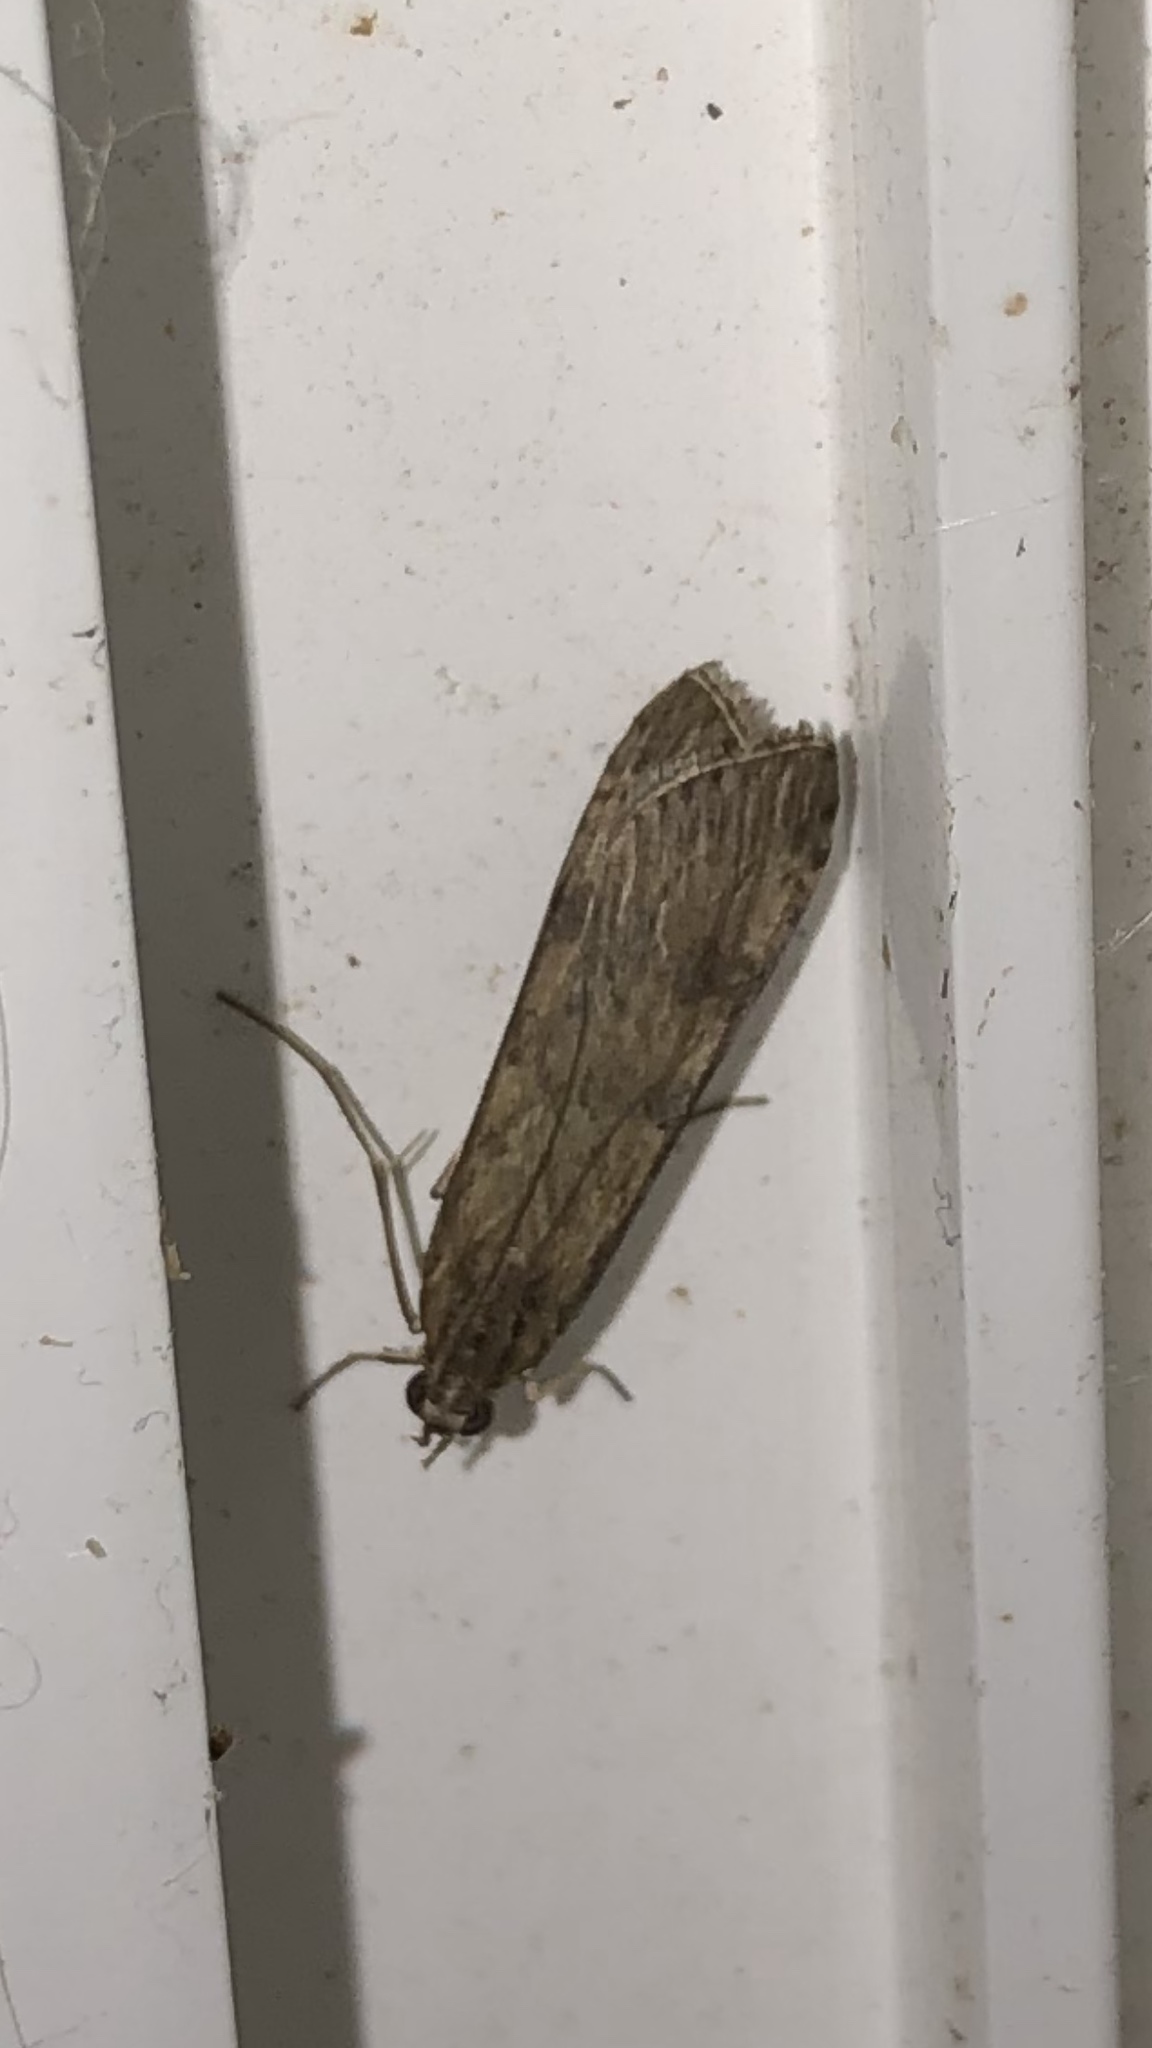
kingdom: Animalia
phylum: Arthropoda
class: Insecta
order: Lepidoptera
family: Crambidae
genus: Nomophila
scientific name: Nomophila nearctica
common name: American rush veneer
